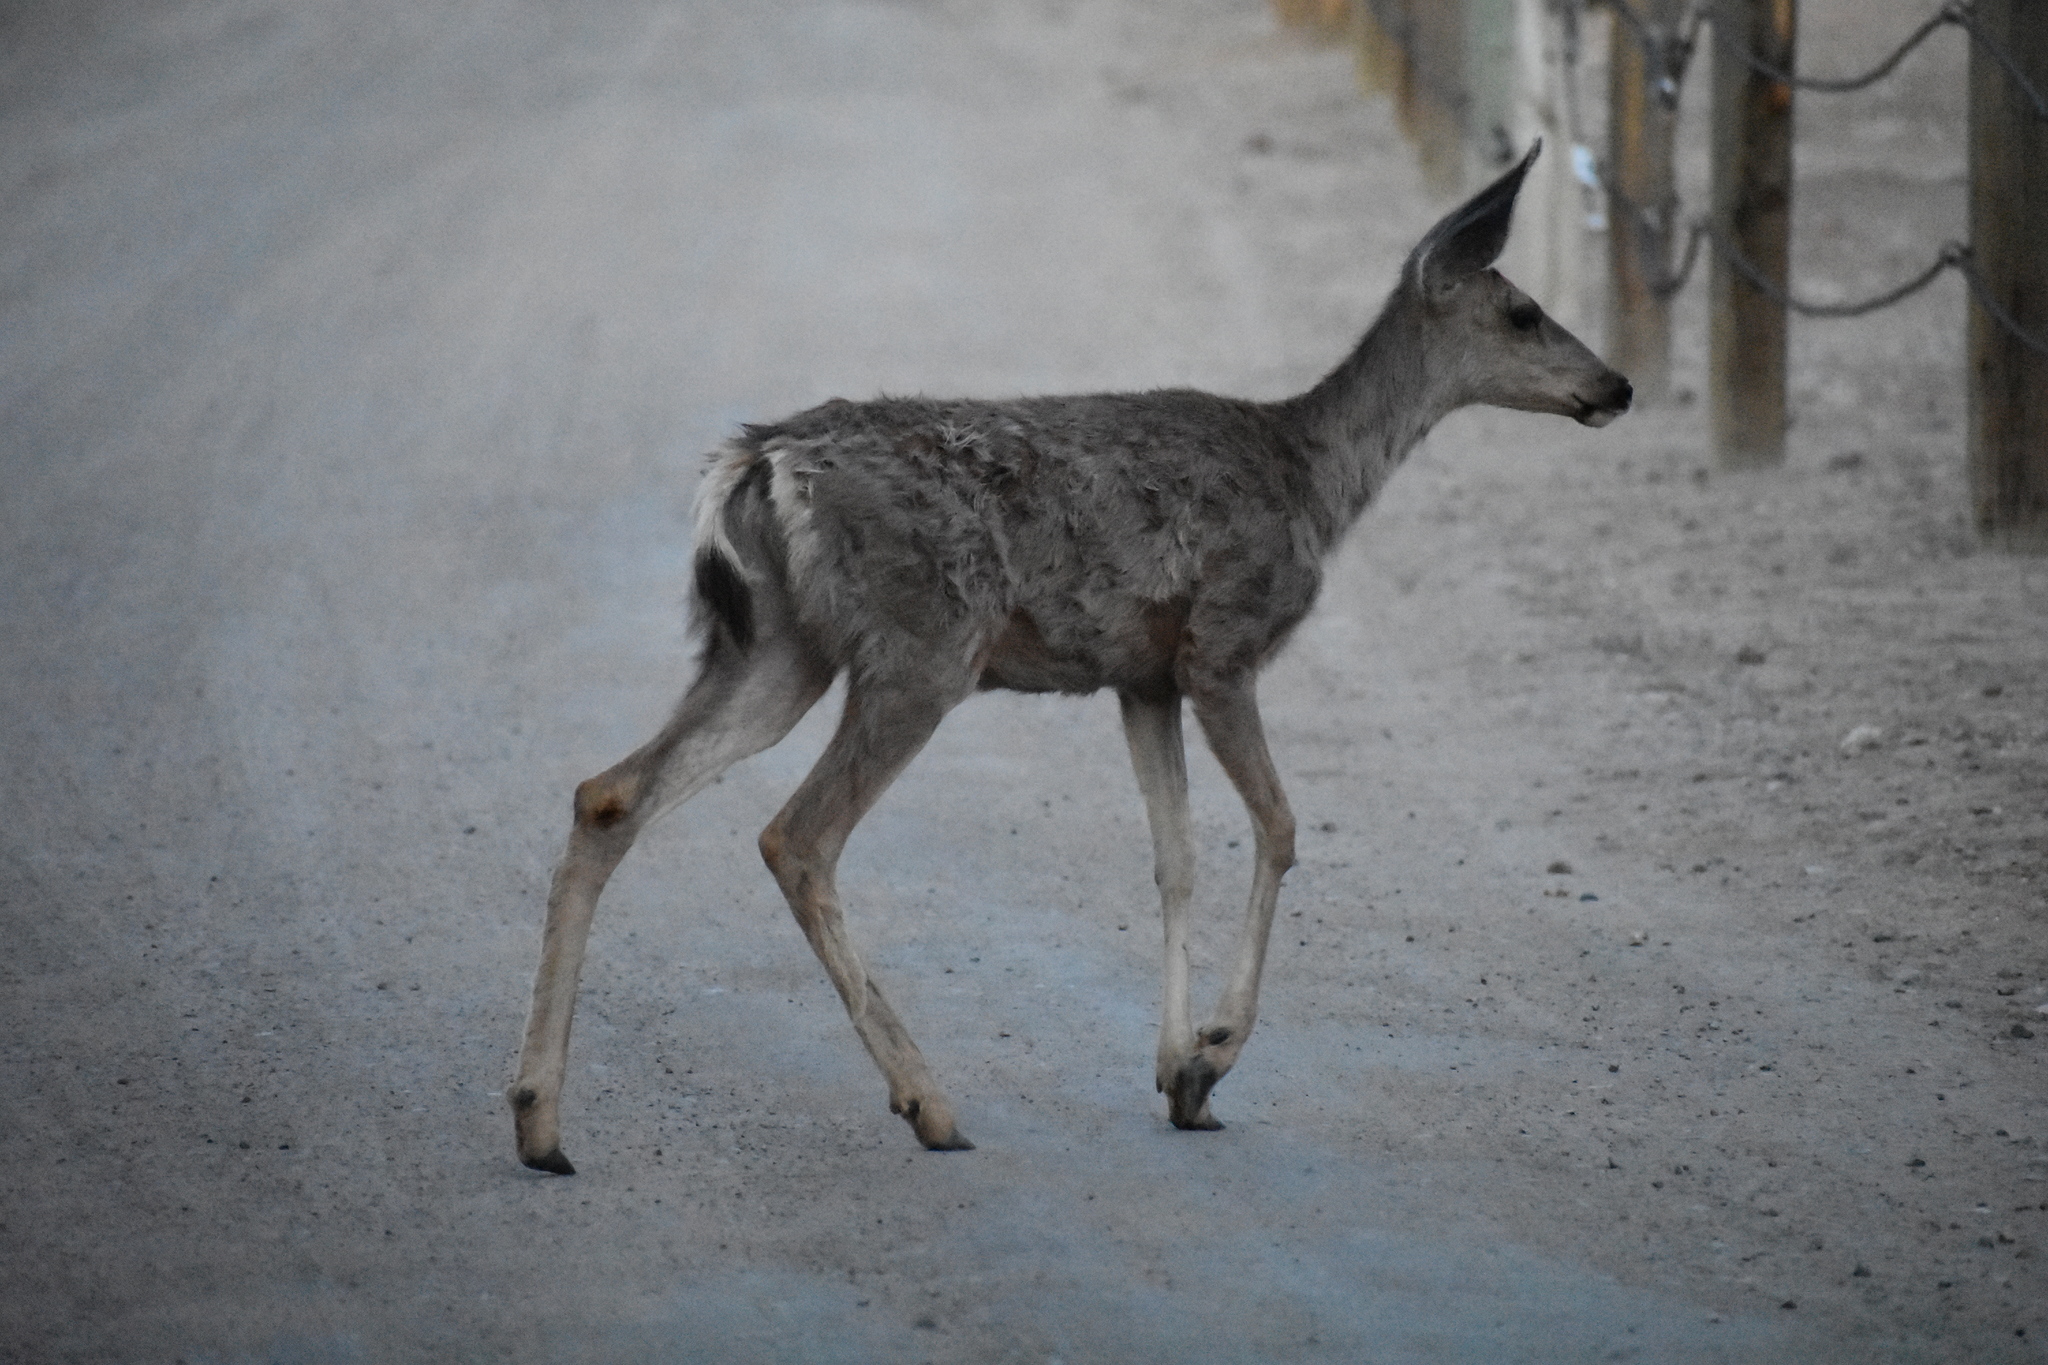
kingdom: Animalia
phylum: Chordata
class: Mammalia
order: Artiodactyla
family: Cervidae
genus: Odocoileus
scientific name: Odocoileus hemionus
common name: Mule deer
